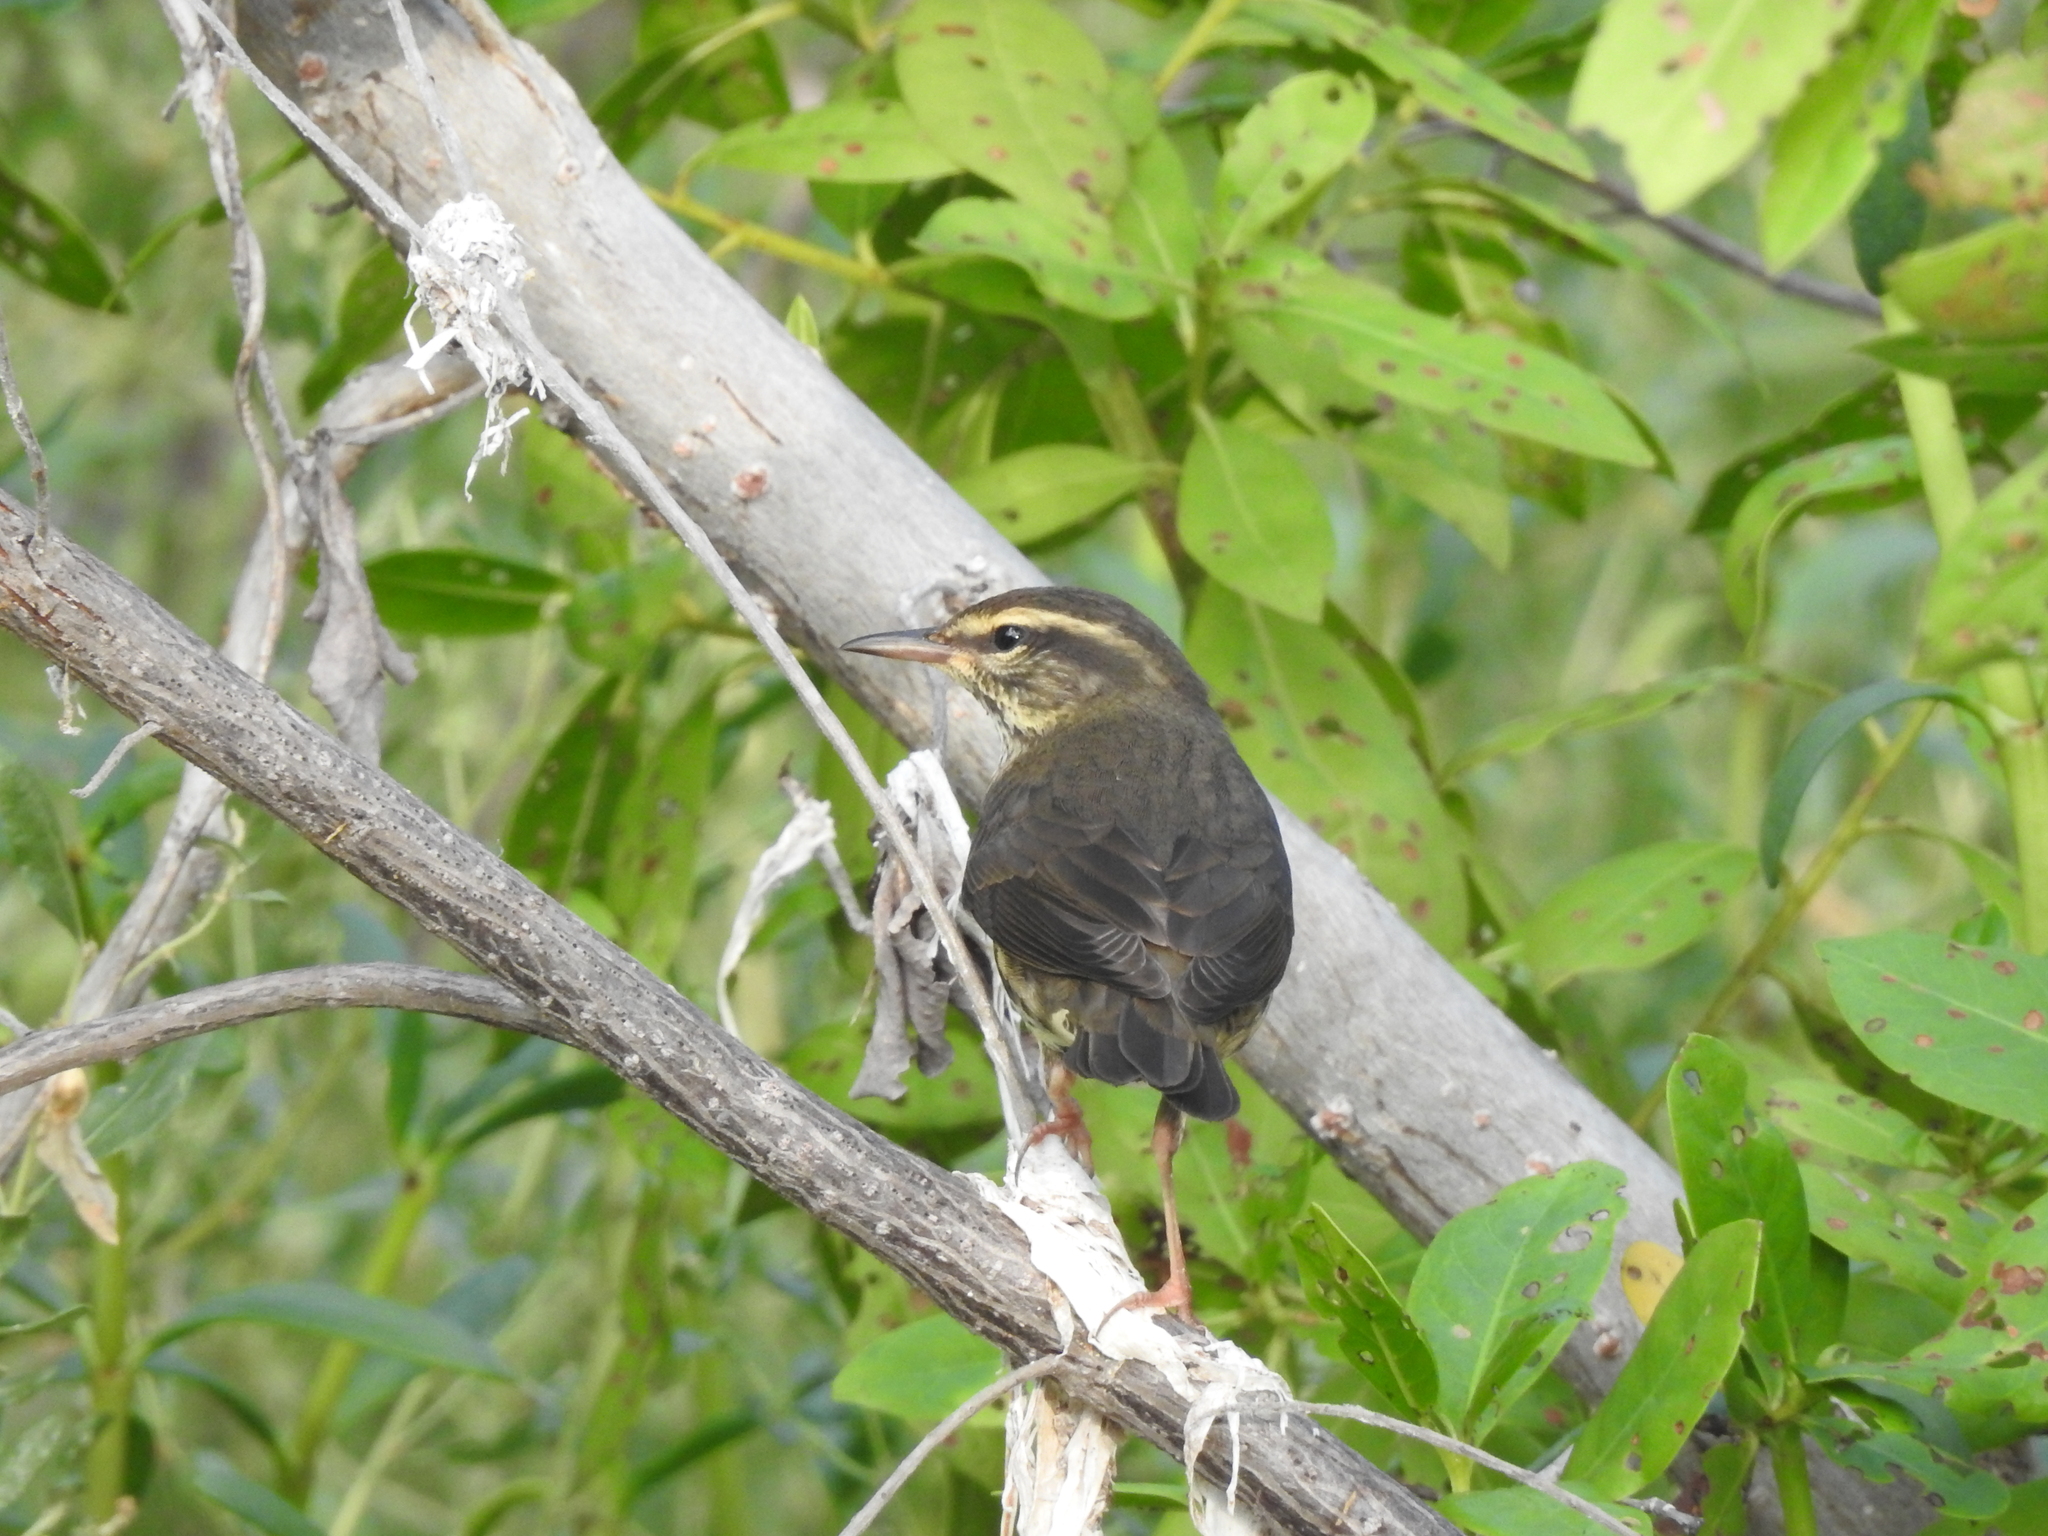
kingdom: Animalia
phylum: Chordata
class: Aves
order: Passeriformes
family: Parulidae
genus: Parkesia
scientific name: Parkesia noveboracensis
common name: Northern waterthrush
